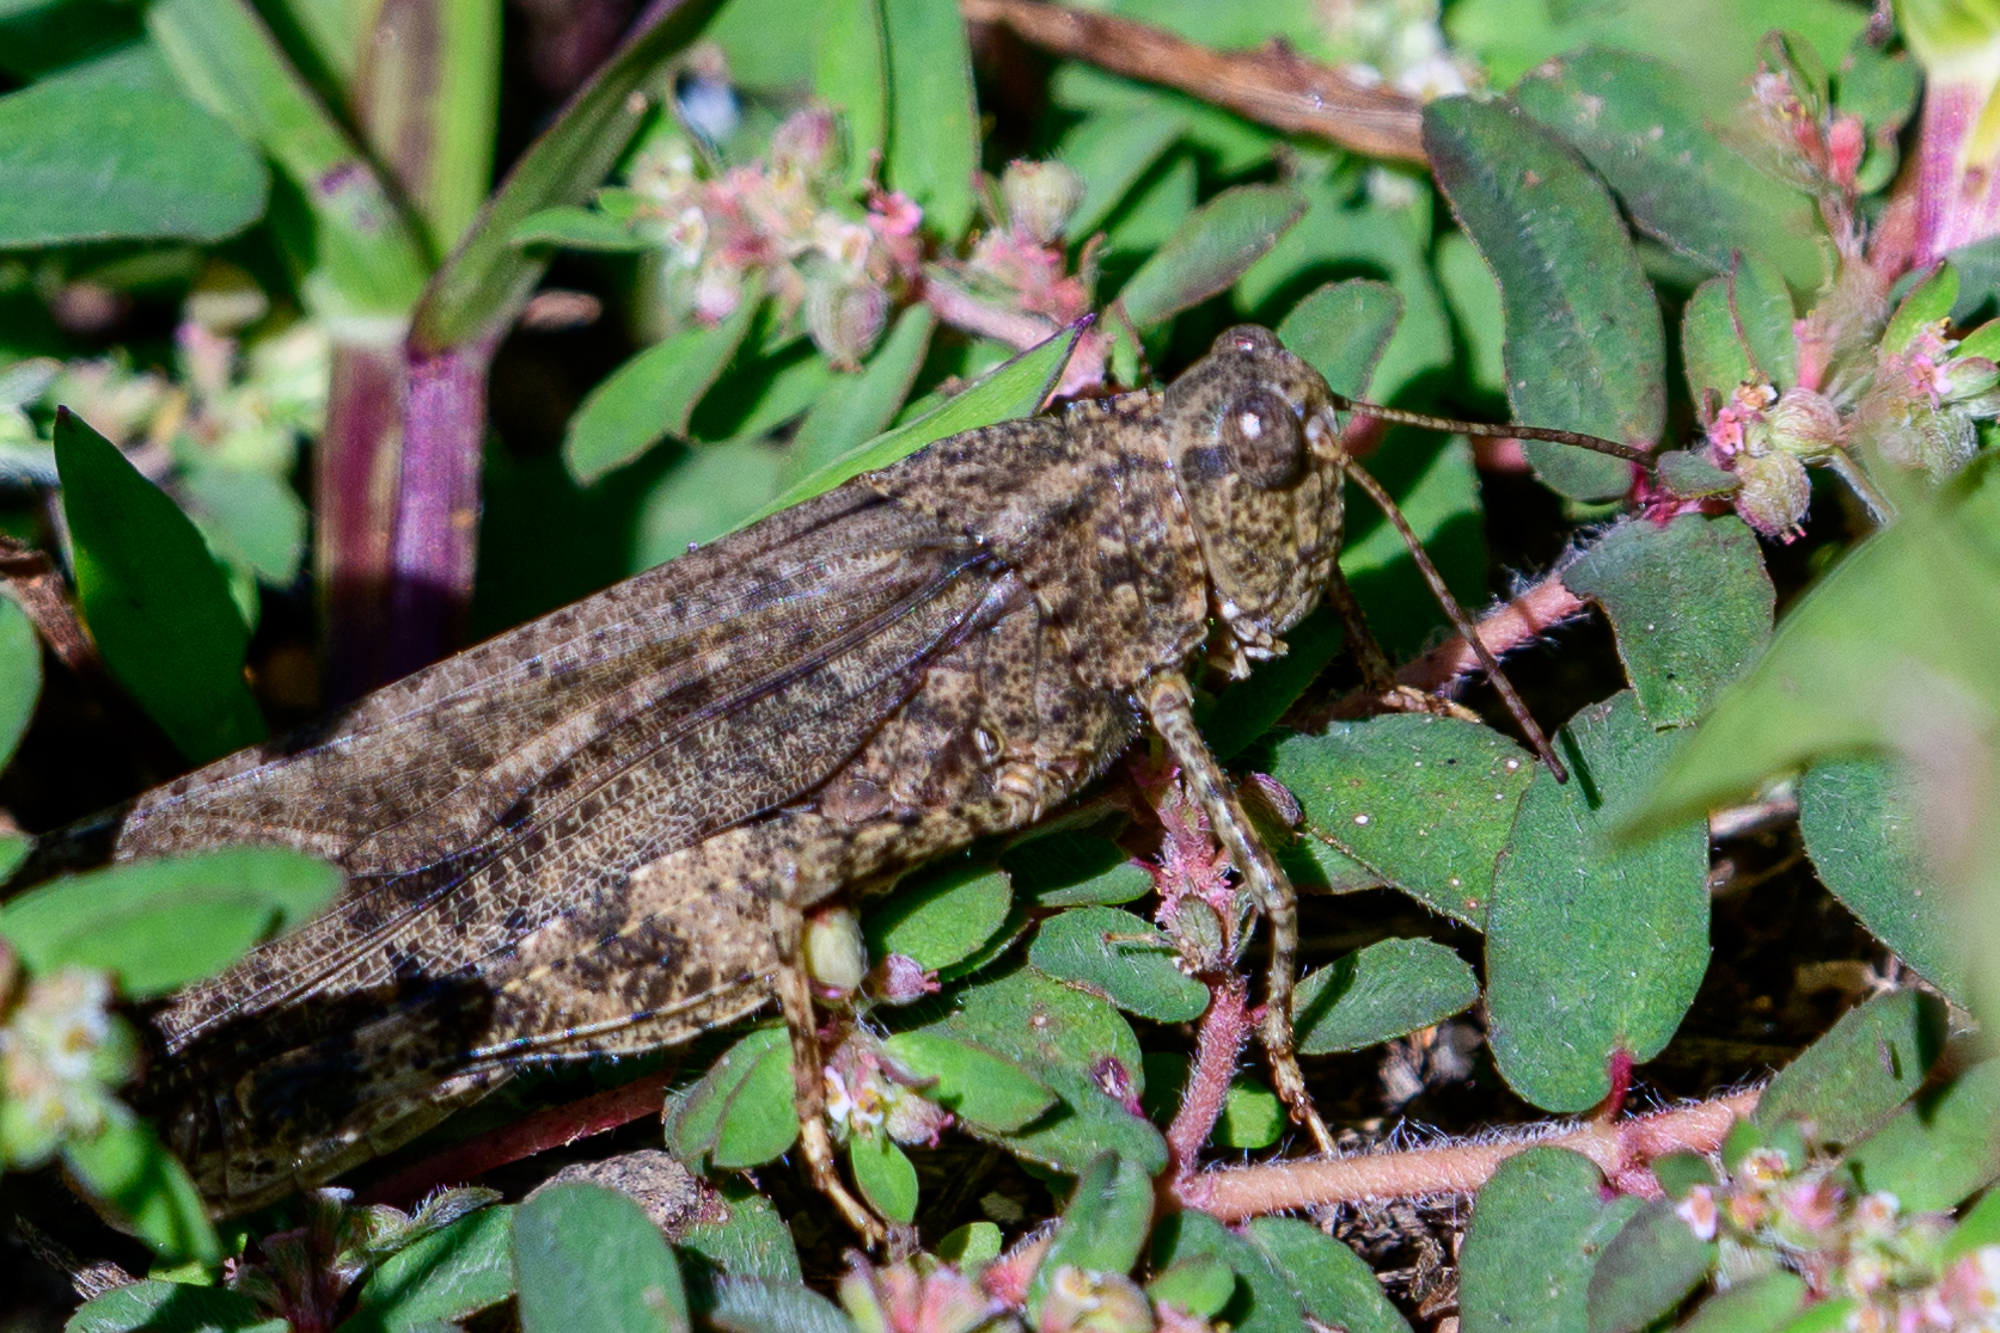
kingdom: Animalia
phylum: Arthropoda
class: Insecta
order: Orthoptera
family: Acrididae
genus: Dissosteira
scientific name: Dissosteira carolina
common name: Carolina grasshopper
